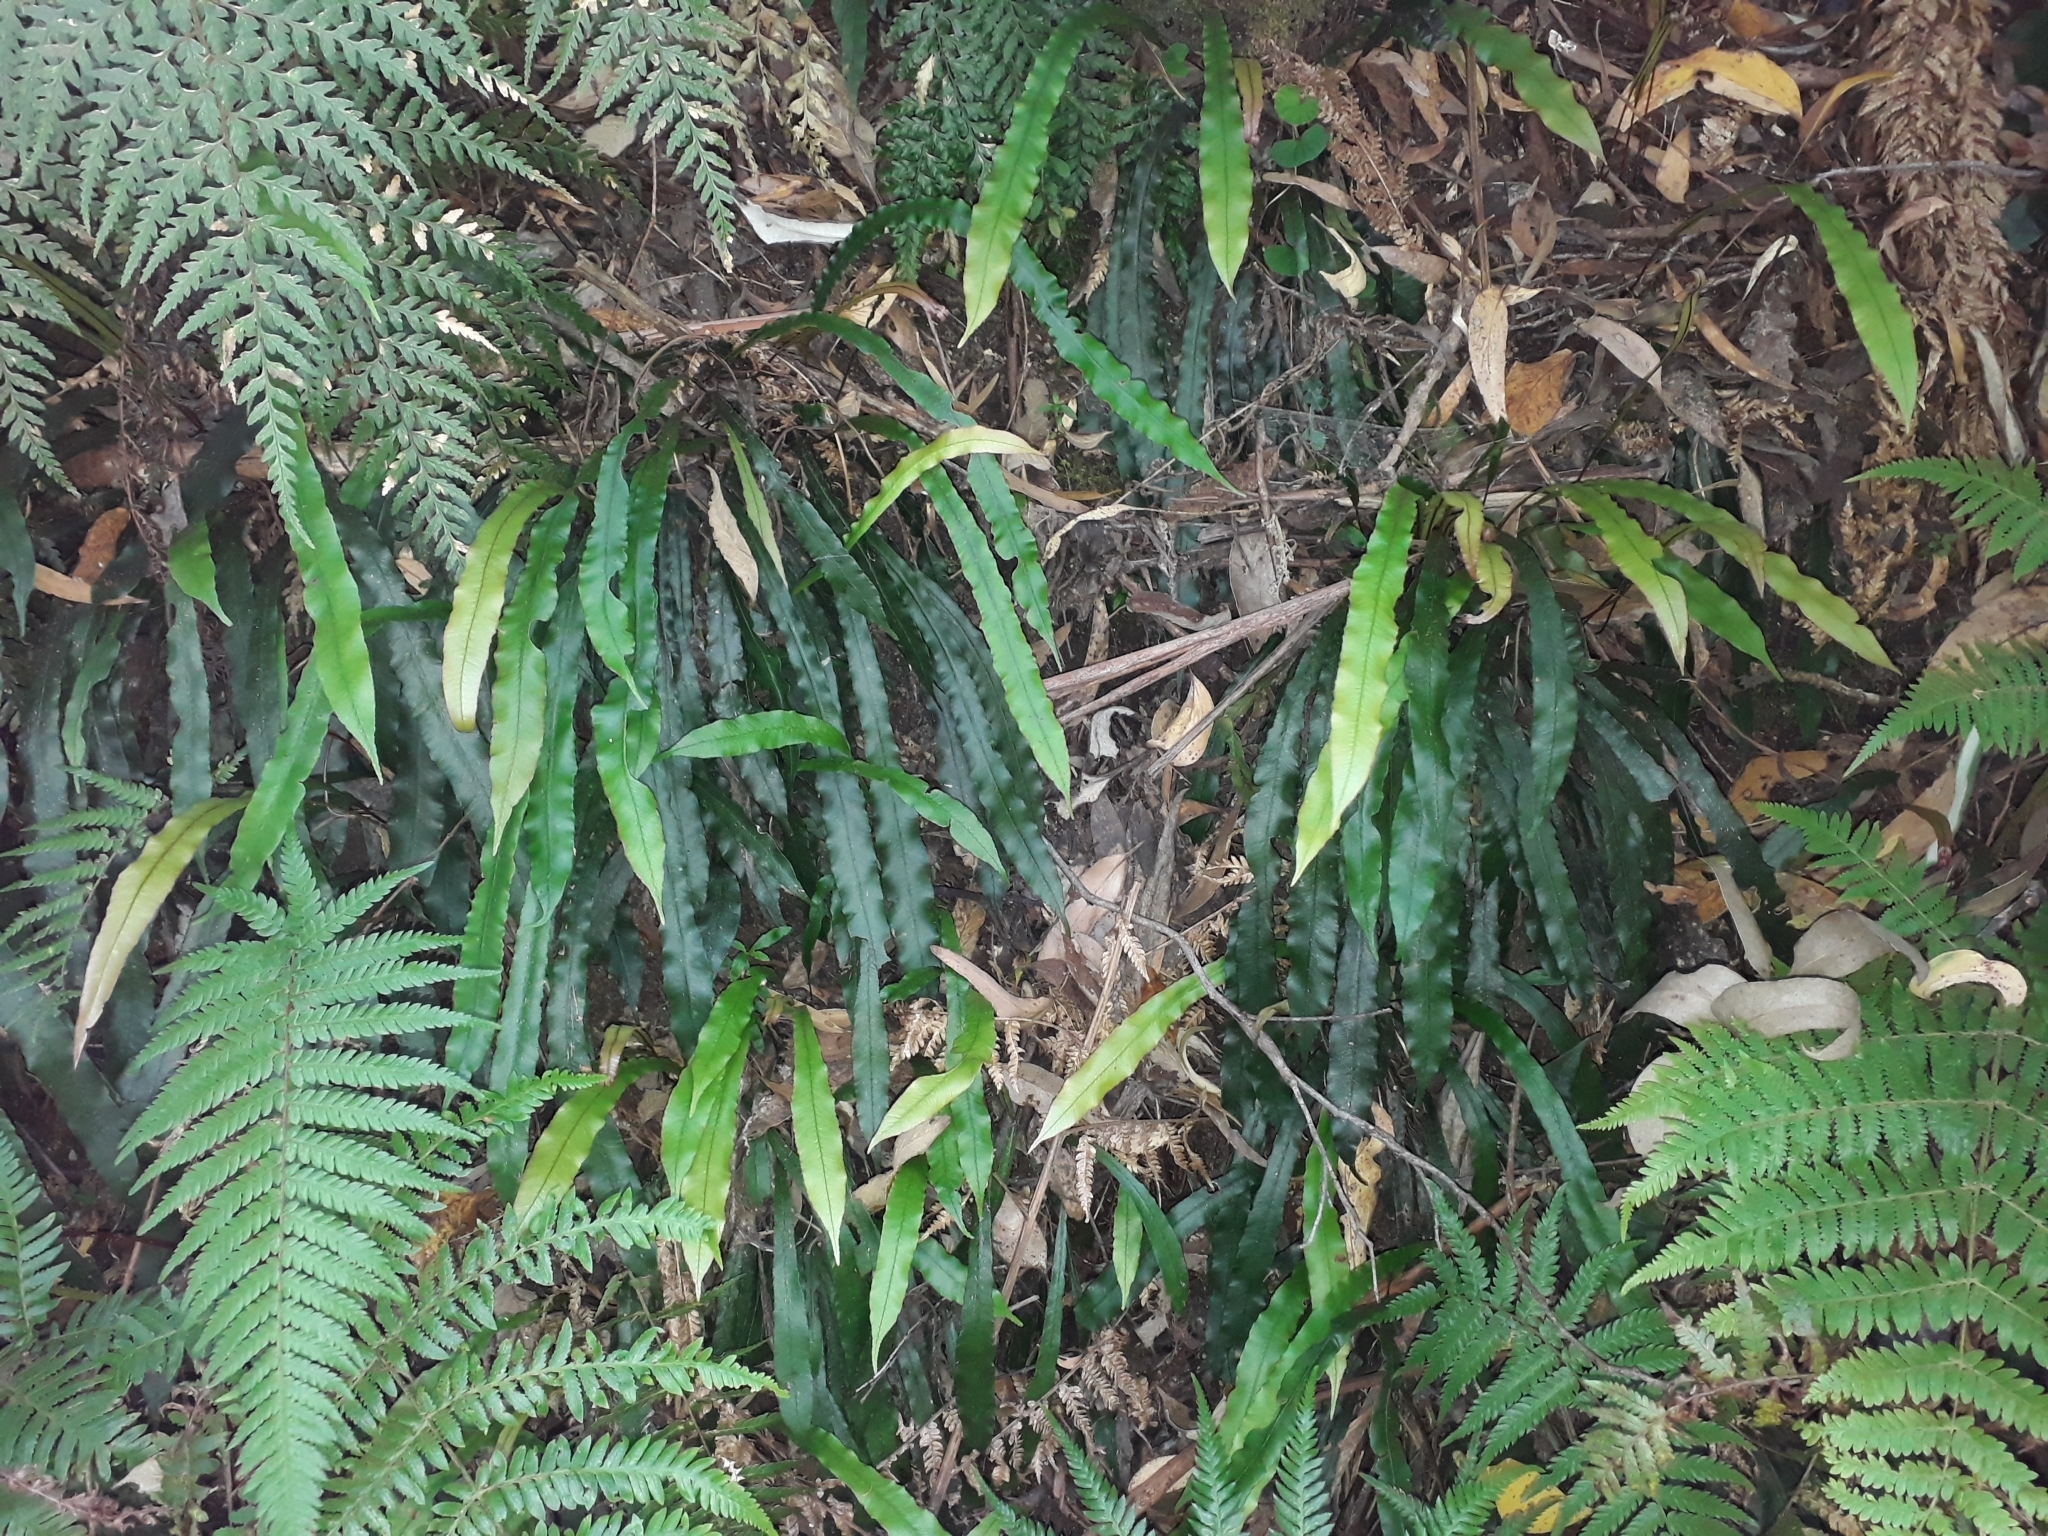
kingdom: Plantae
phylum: Tracheophyta
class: Polypodiopsida
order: Polypodiales
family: Blechnaceae
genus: Austroblechnum
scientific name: Austroblechnum patersonii
